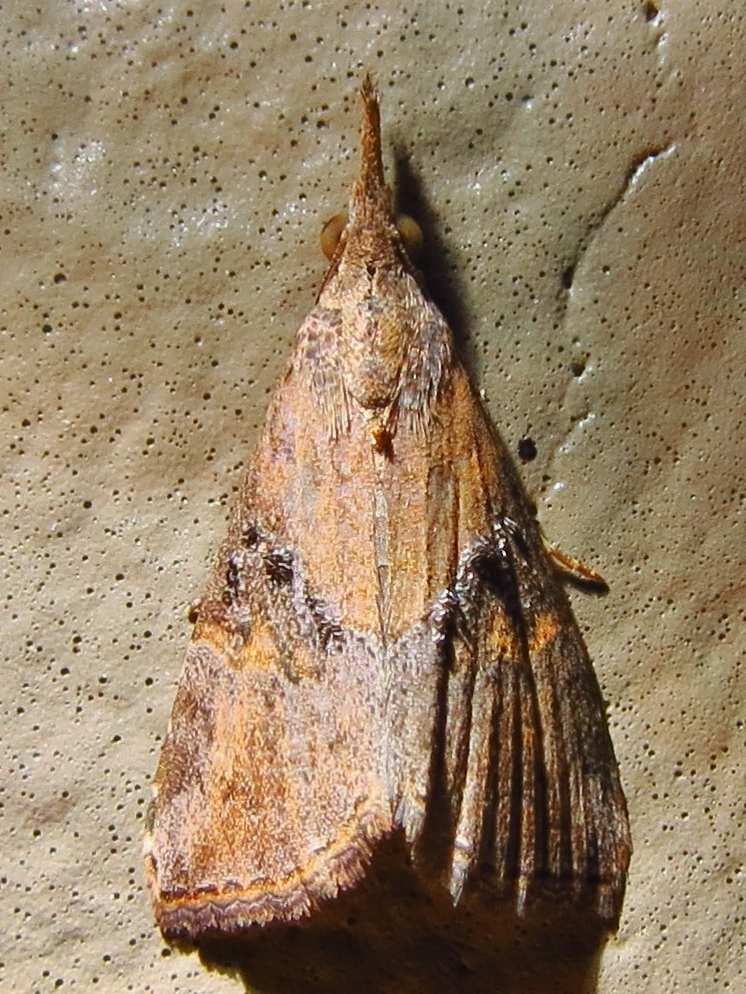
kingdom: Animalia
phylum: Arthropoda
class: Insecta
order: Lepidoptera
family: Erebidae
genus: Hypena
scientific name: Hypena minualis
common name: Sooty snout
